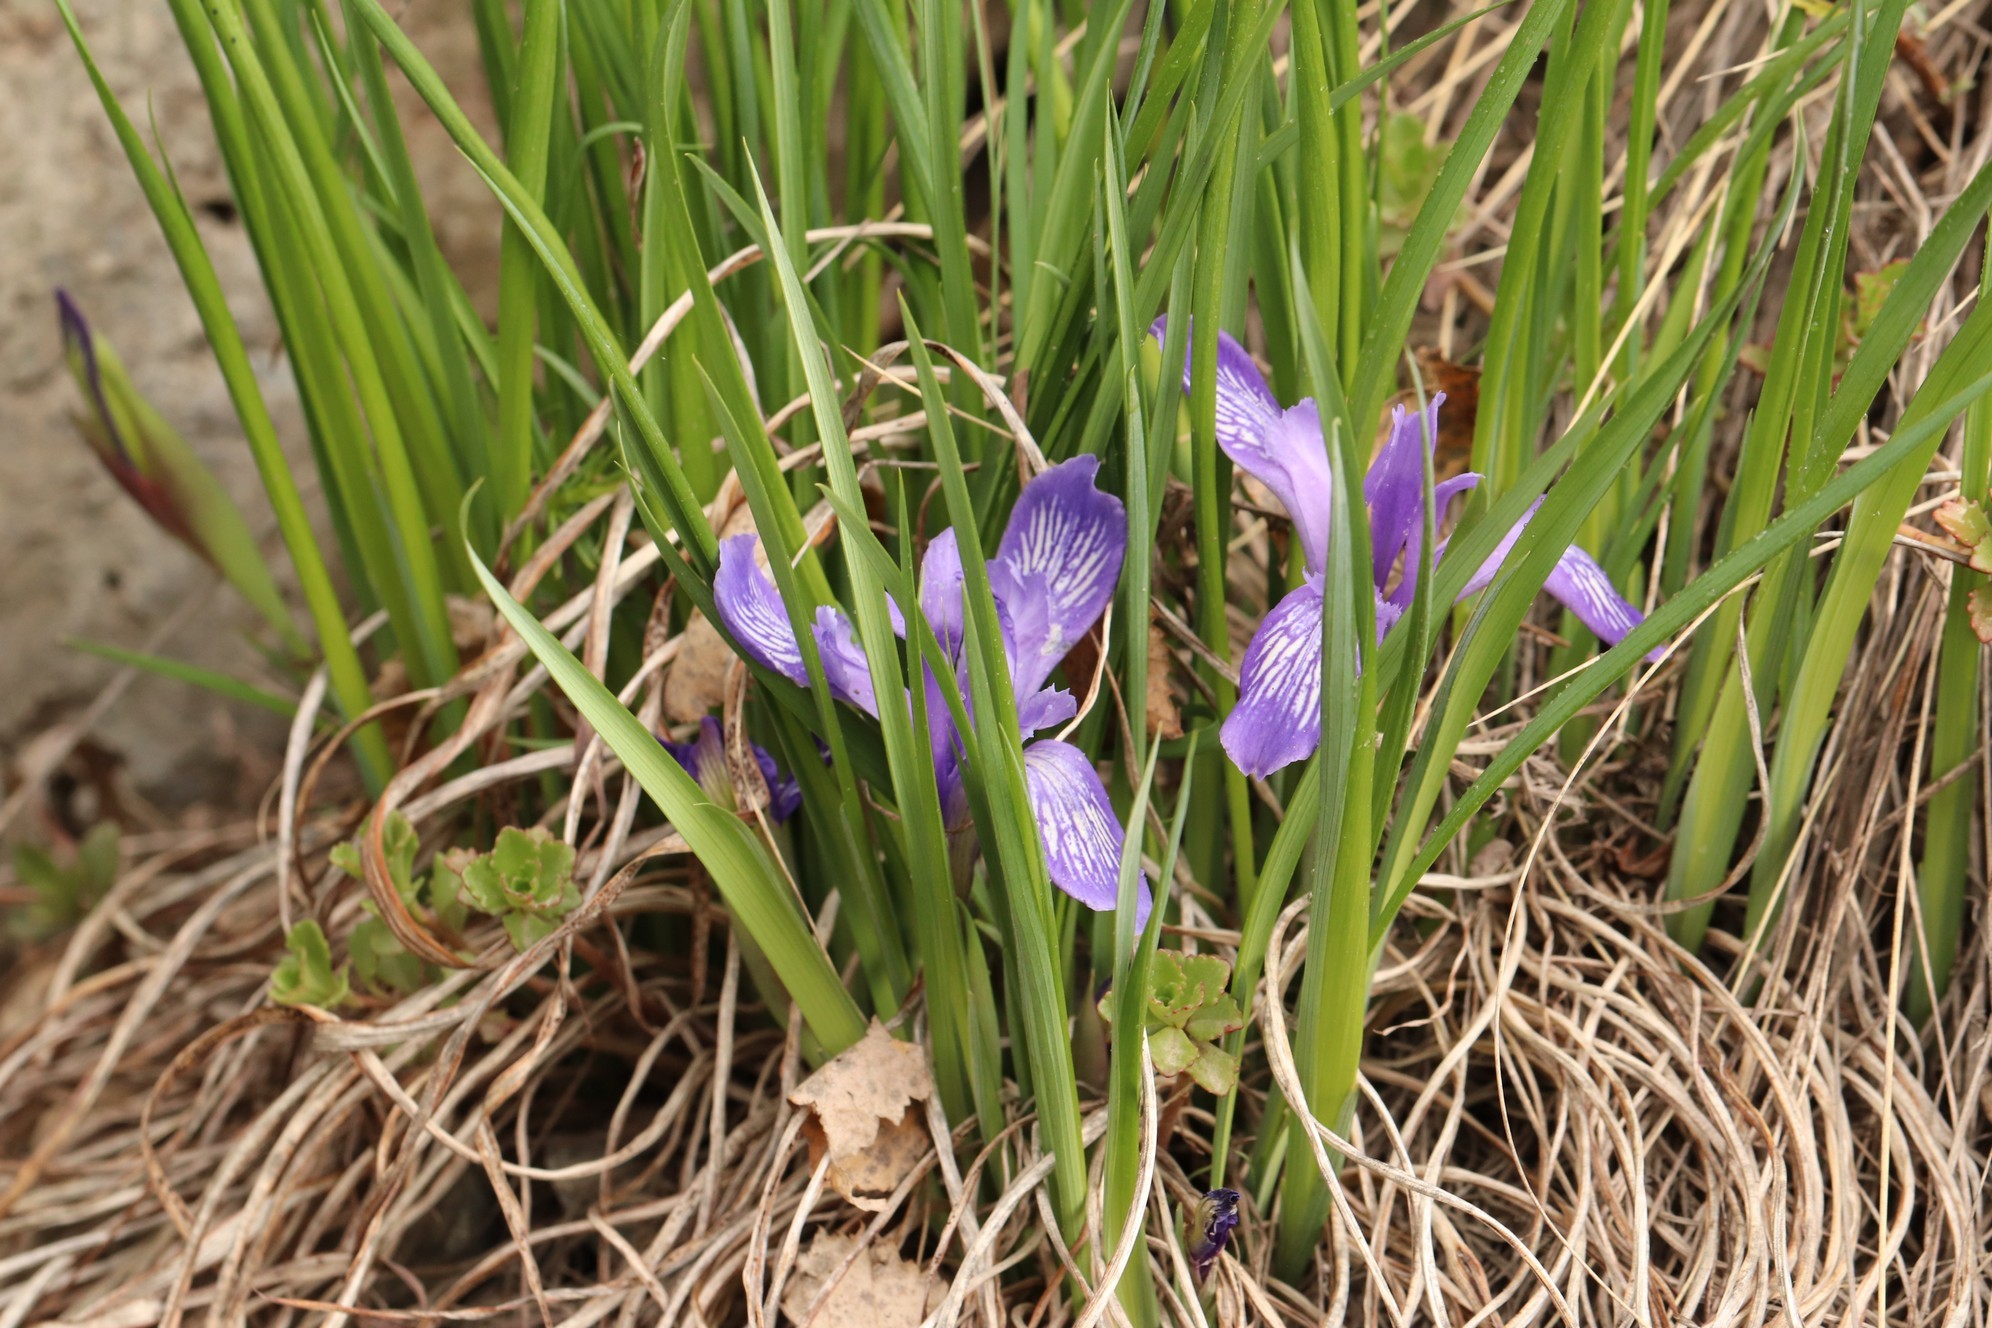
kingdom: Plantae
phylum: Tracheophyta
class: Liliopsida
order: Asparagales
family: Iridaceae
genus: Iris
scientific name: Iris ruthenica
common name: Purple-bract iris
